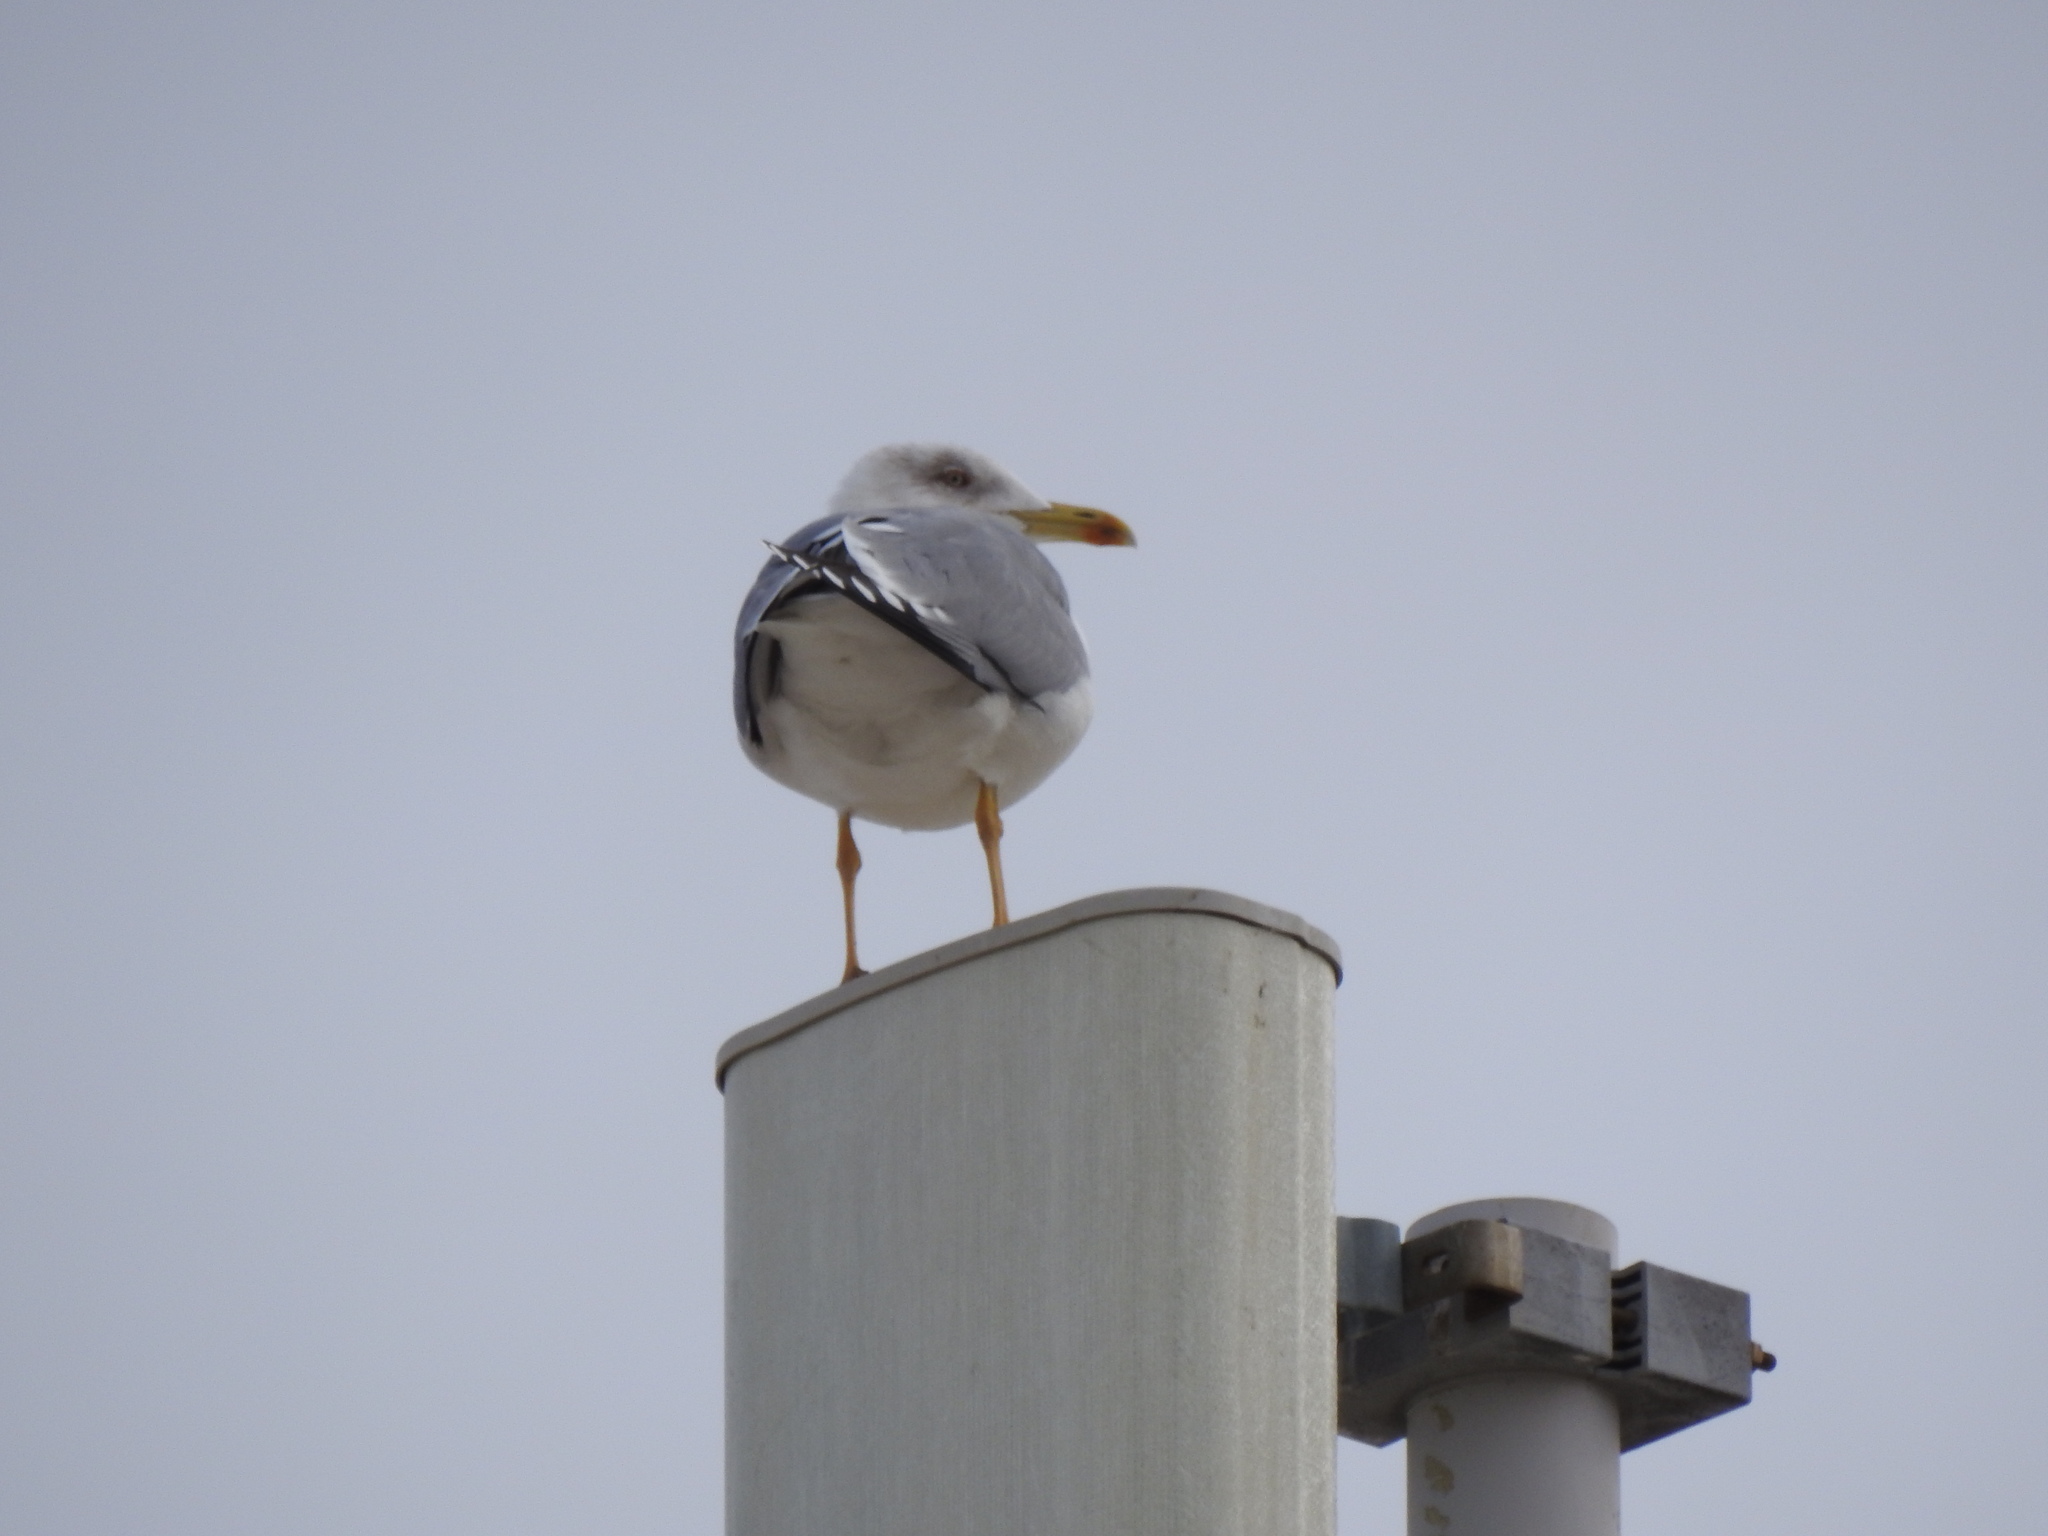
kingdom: Animalia
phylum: Chordata
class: Aves
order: Charadriiformes
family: Laridae
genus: Larus
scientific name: Larus michahellis
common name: Yellow-legged gull
